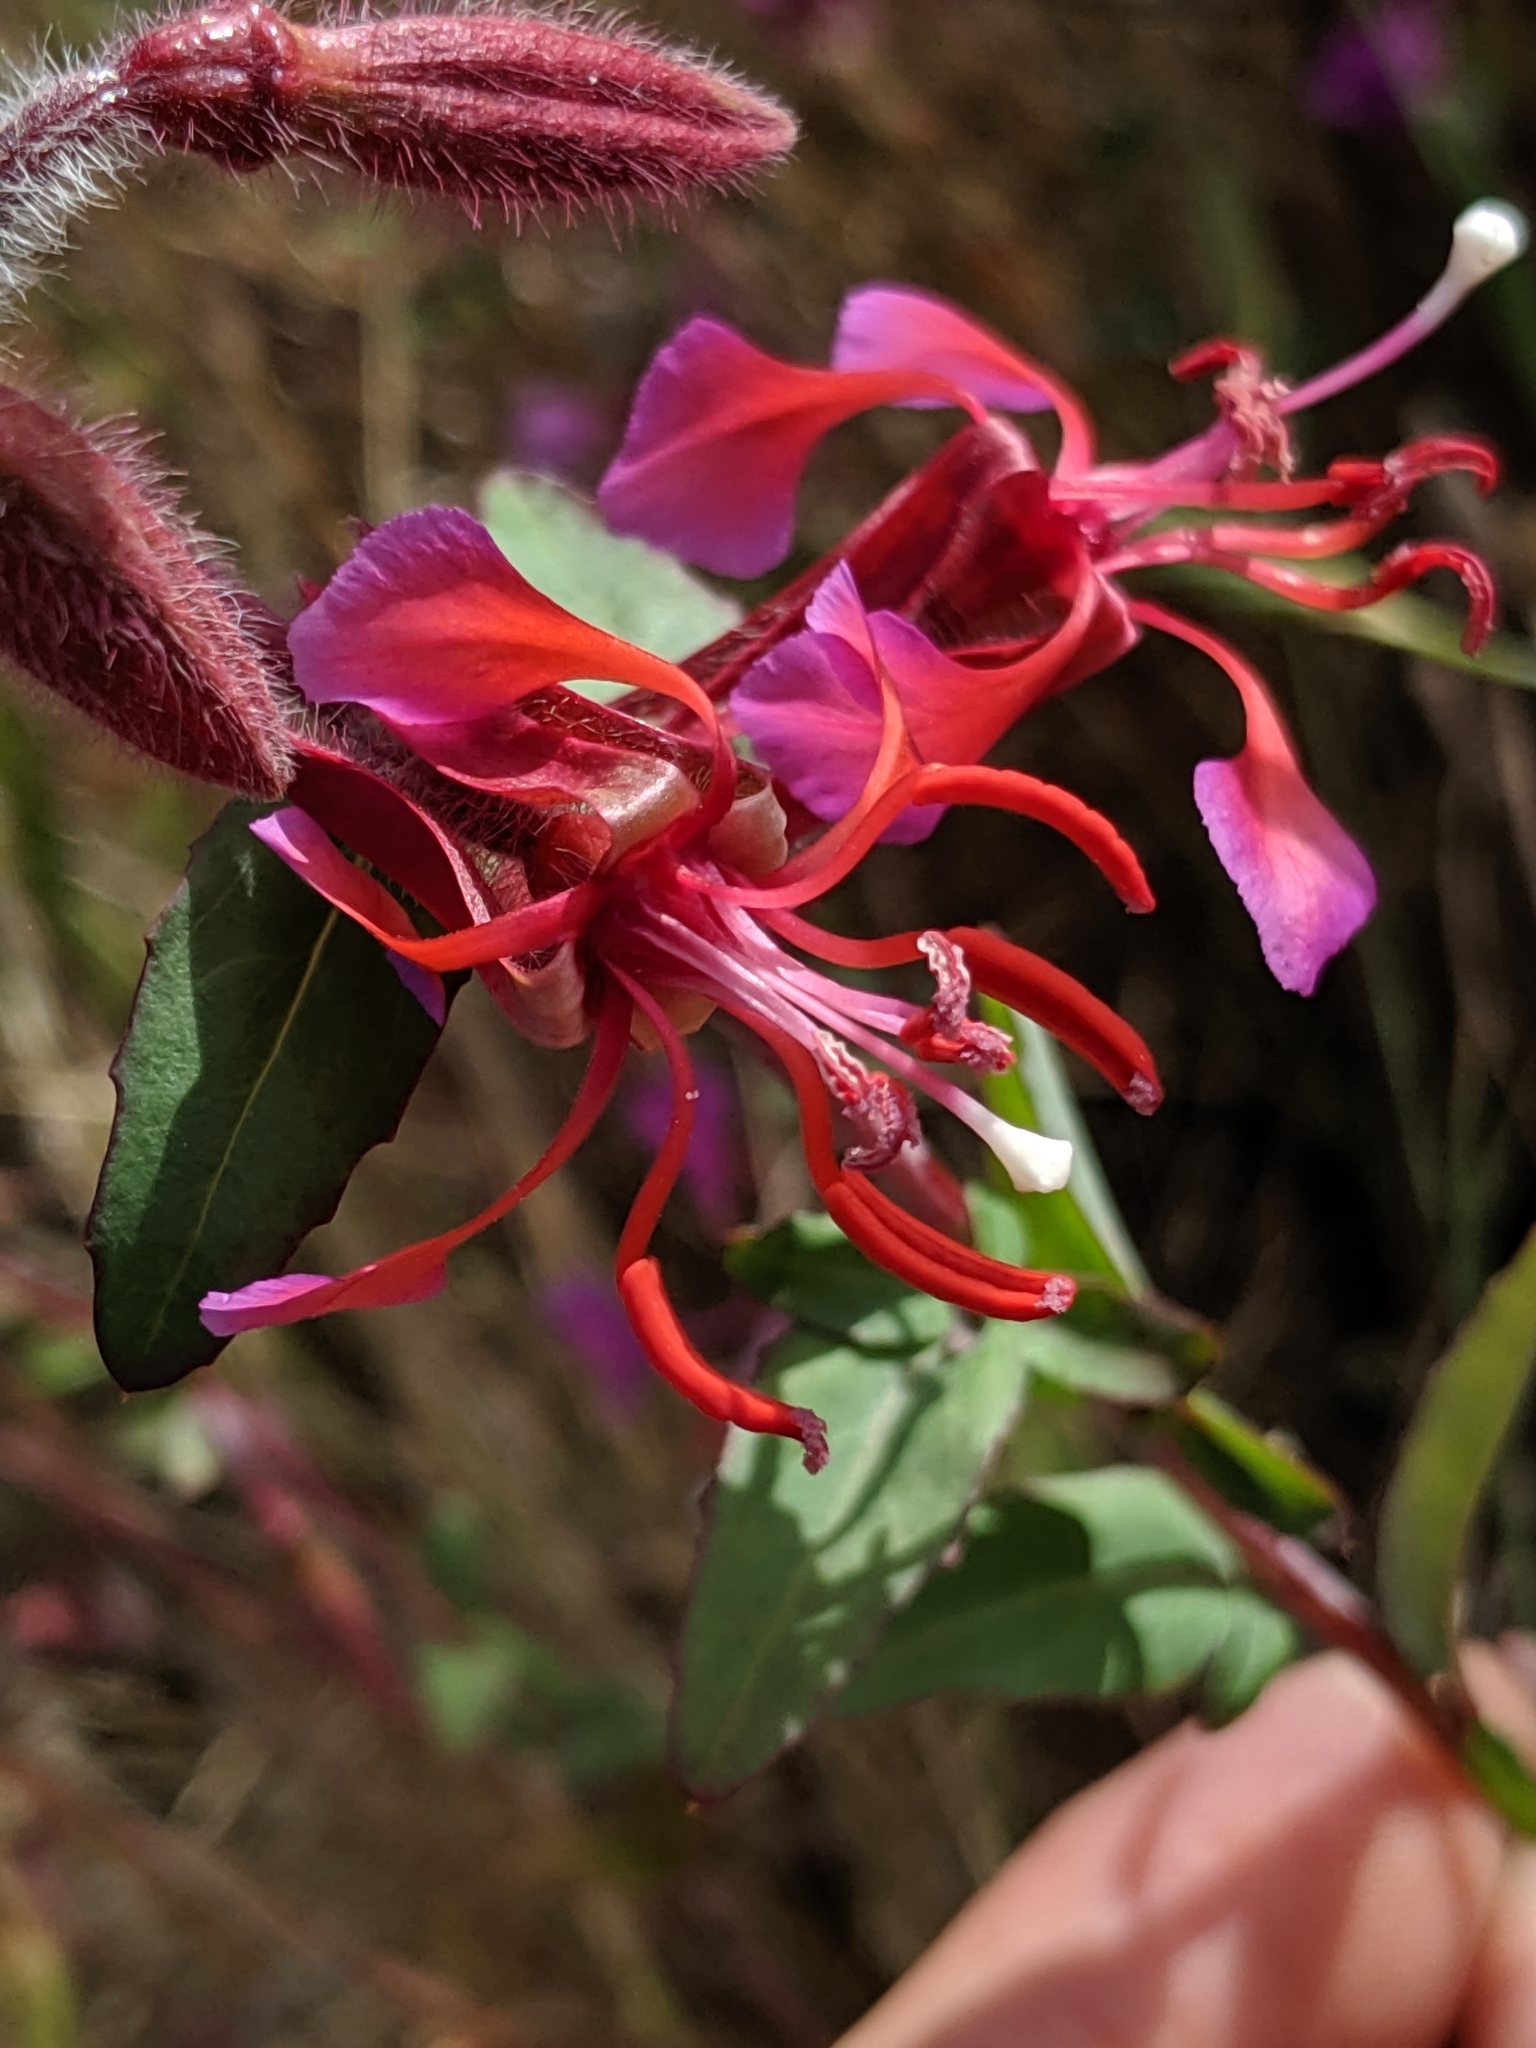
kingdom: Plantae
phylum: Tracheophyta
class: Magnoliopsida
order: Myrtales
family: Onagraceae
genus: Clarkia
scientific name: Clarkia unguiculata
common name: Clarkia
